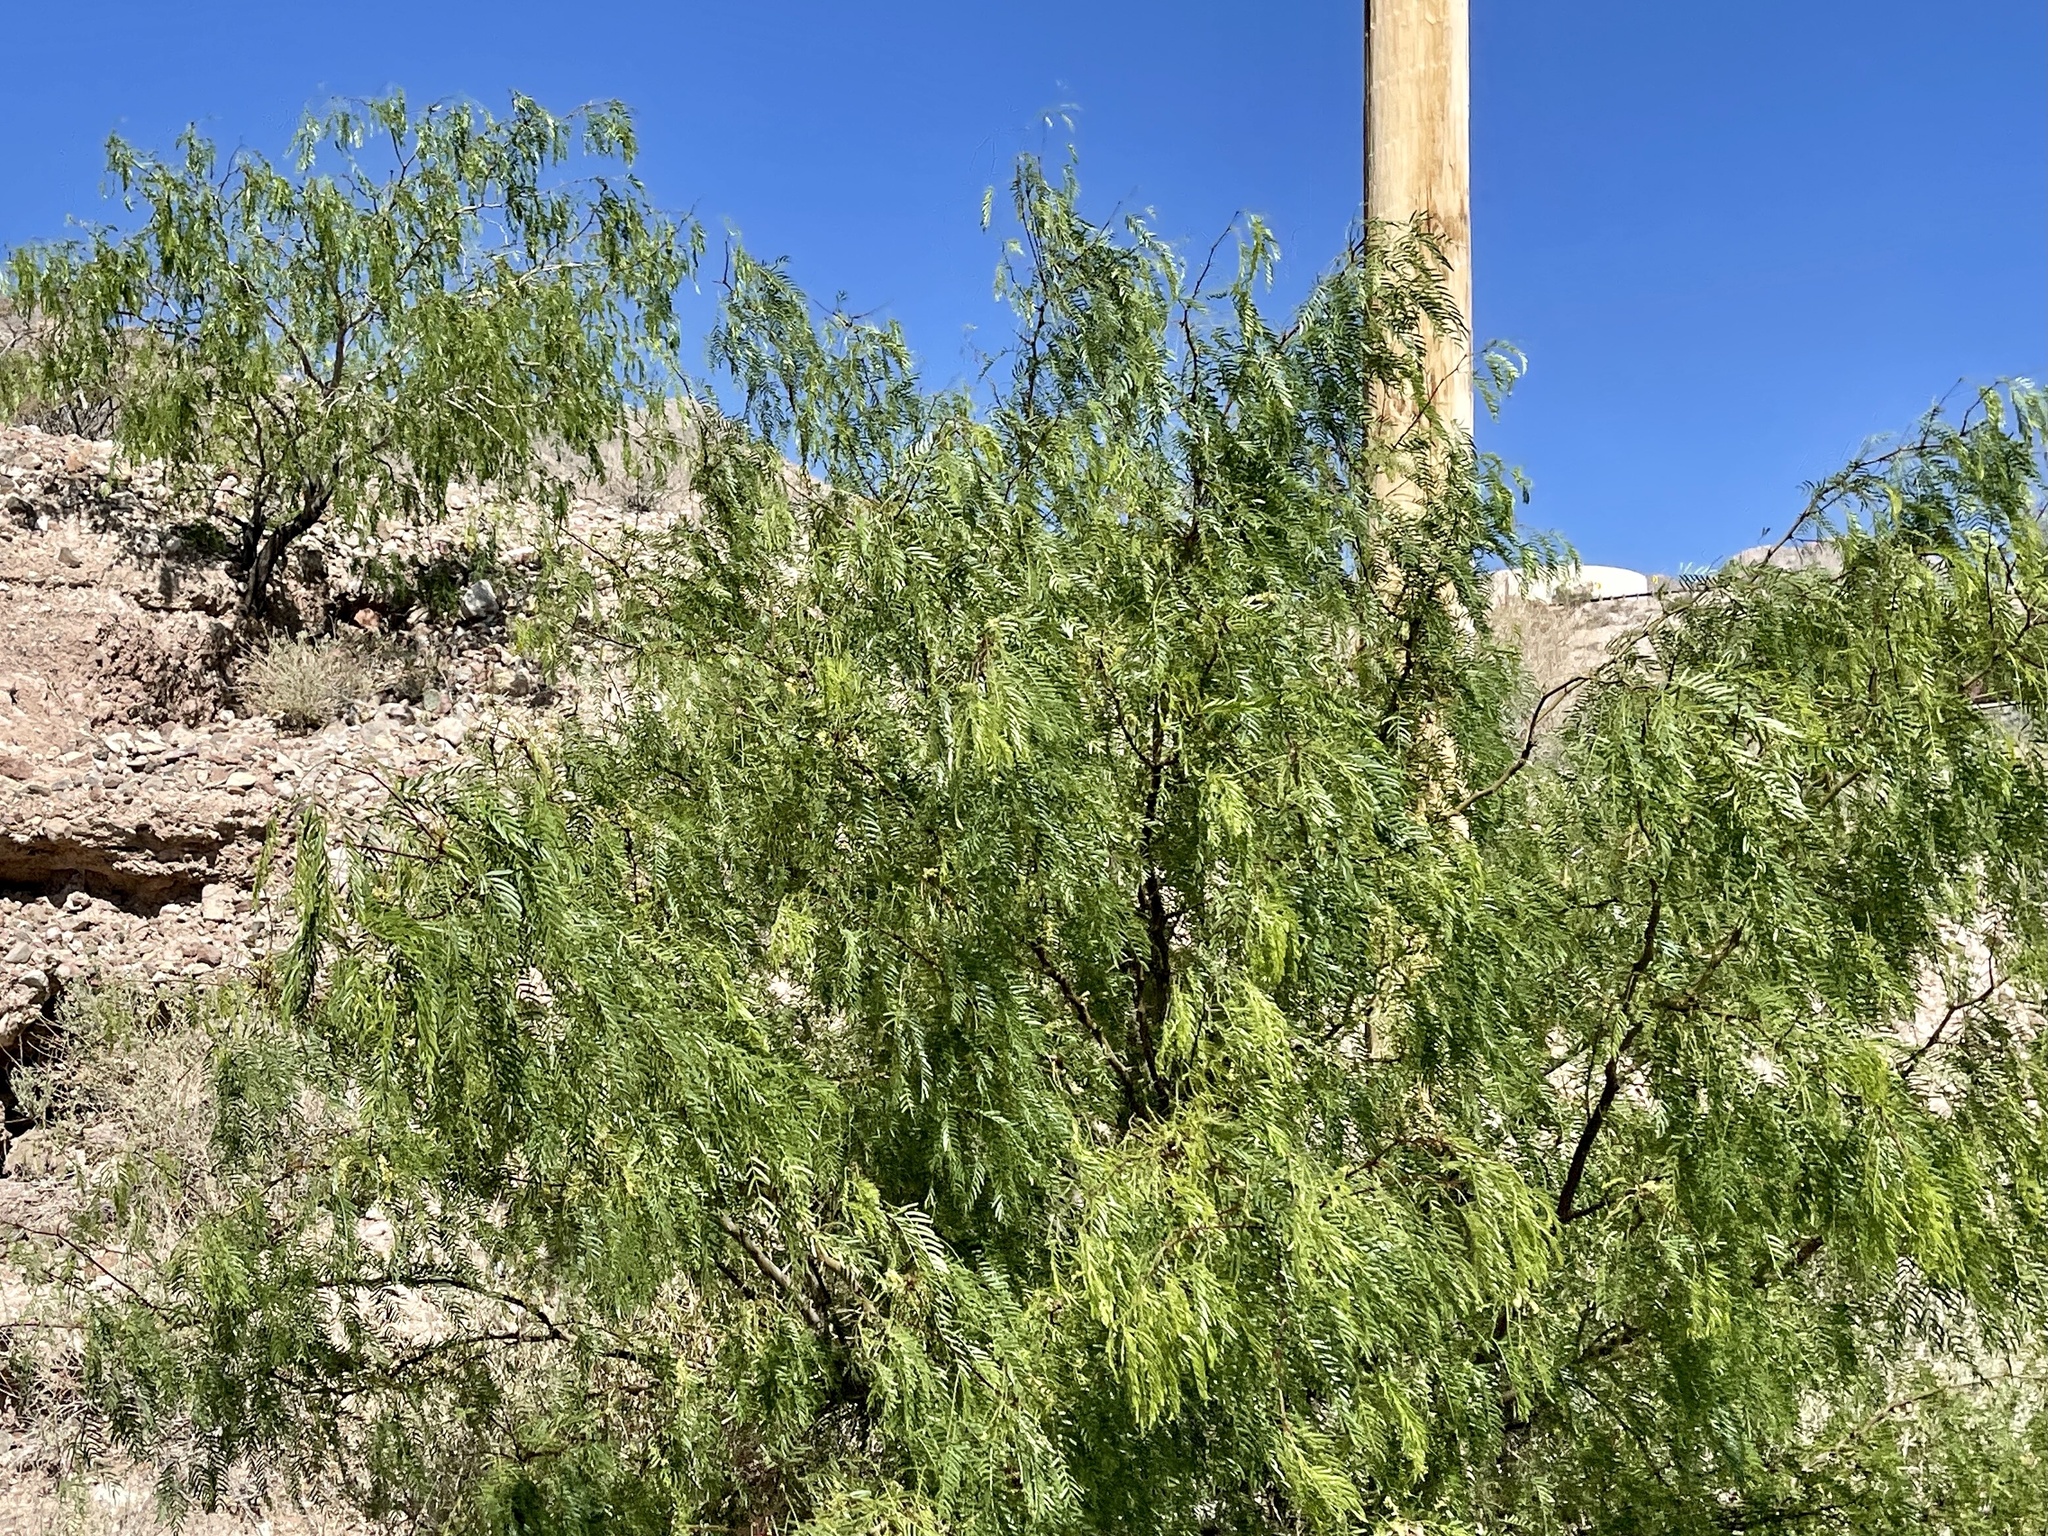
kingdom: Plantae
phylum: Tracheophyta
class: Magnoliopsida
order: Fabales
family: Fabaceae
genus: Prosopis
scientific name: Prosopis glandulosa
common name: Honey mesquite
